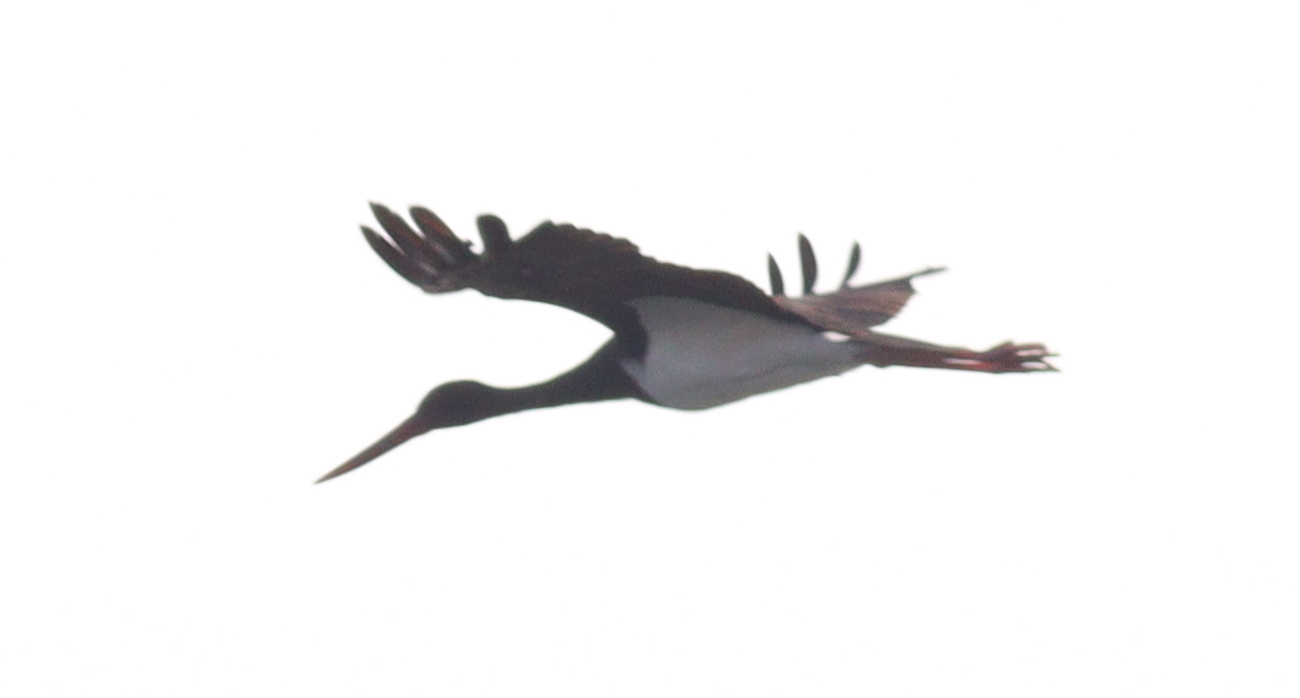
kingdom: Animalia
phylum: Chordata
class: Aves
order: Ciconiiformes
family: Ciconiidae
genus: Ciconia
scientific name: Ciconia nigra
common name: Black stork
